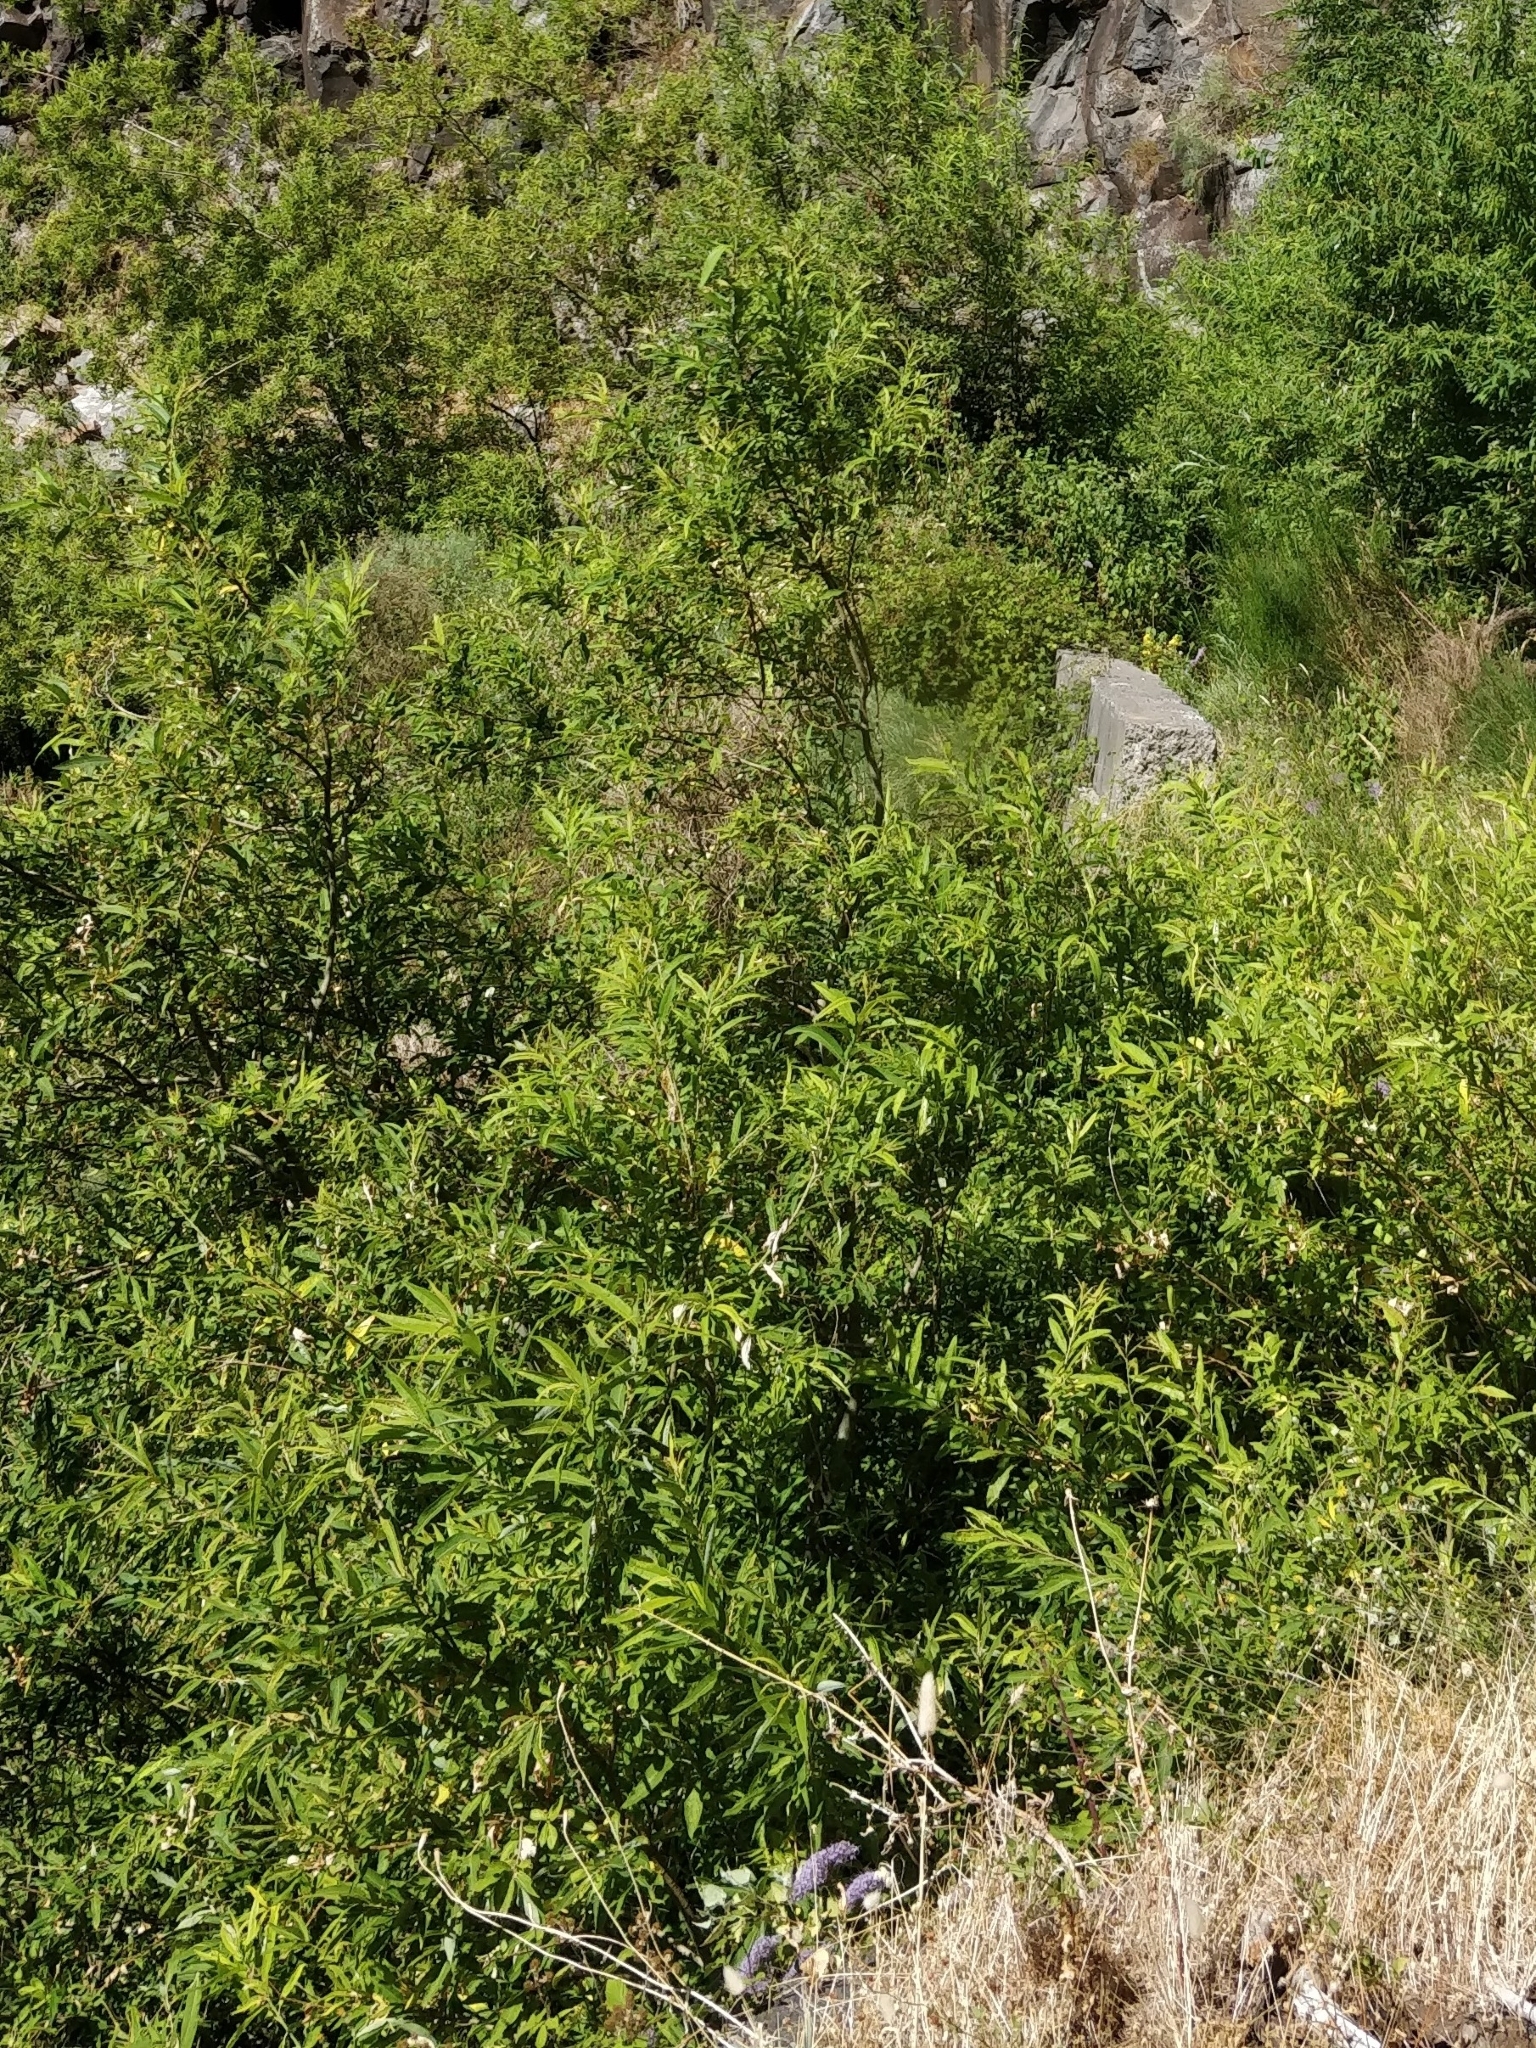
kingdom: Plantae
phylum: Tracheophyta
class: Magnoliopsida
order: Malpighiales
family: Salicaceae
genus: Salix
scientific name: Salix canariensis
